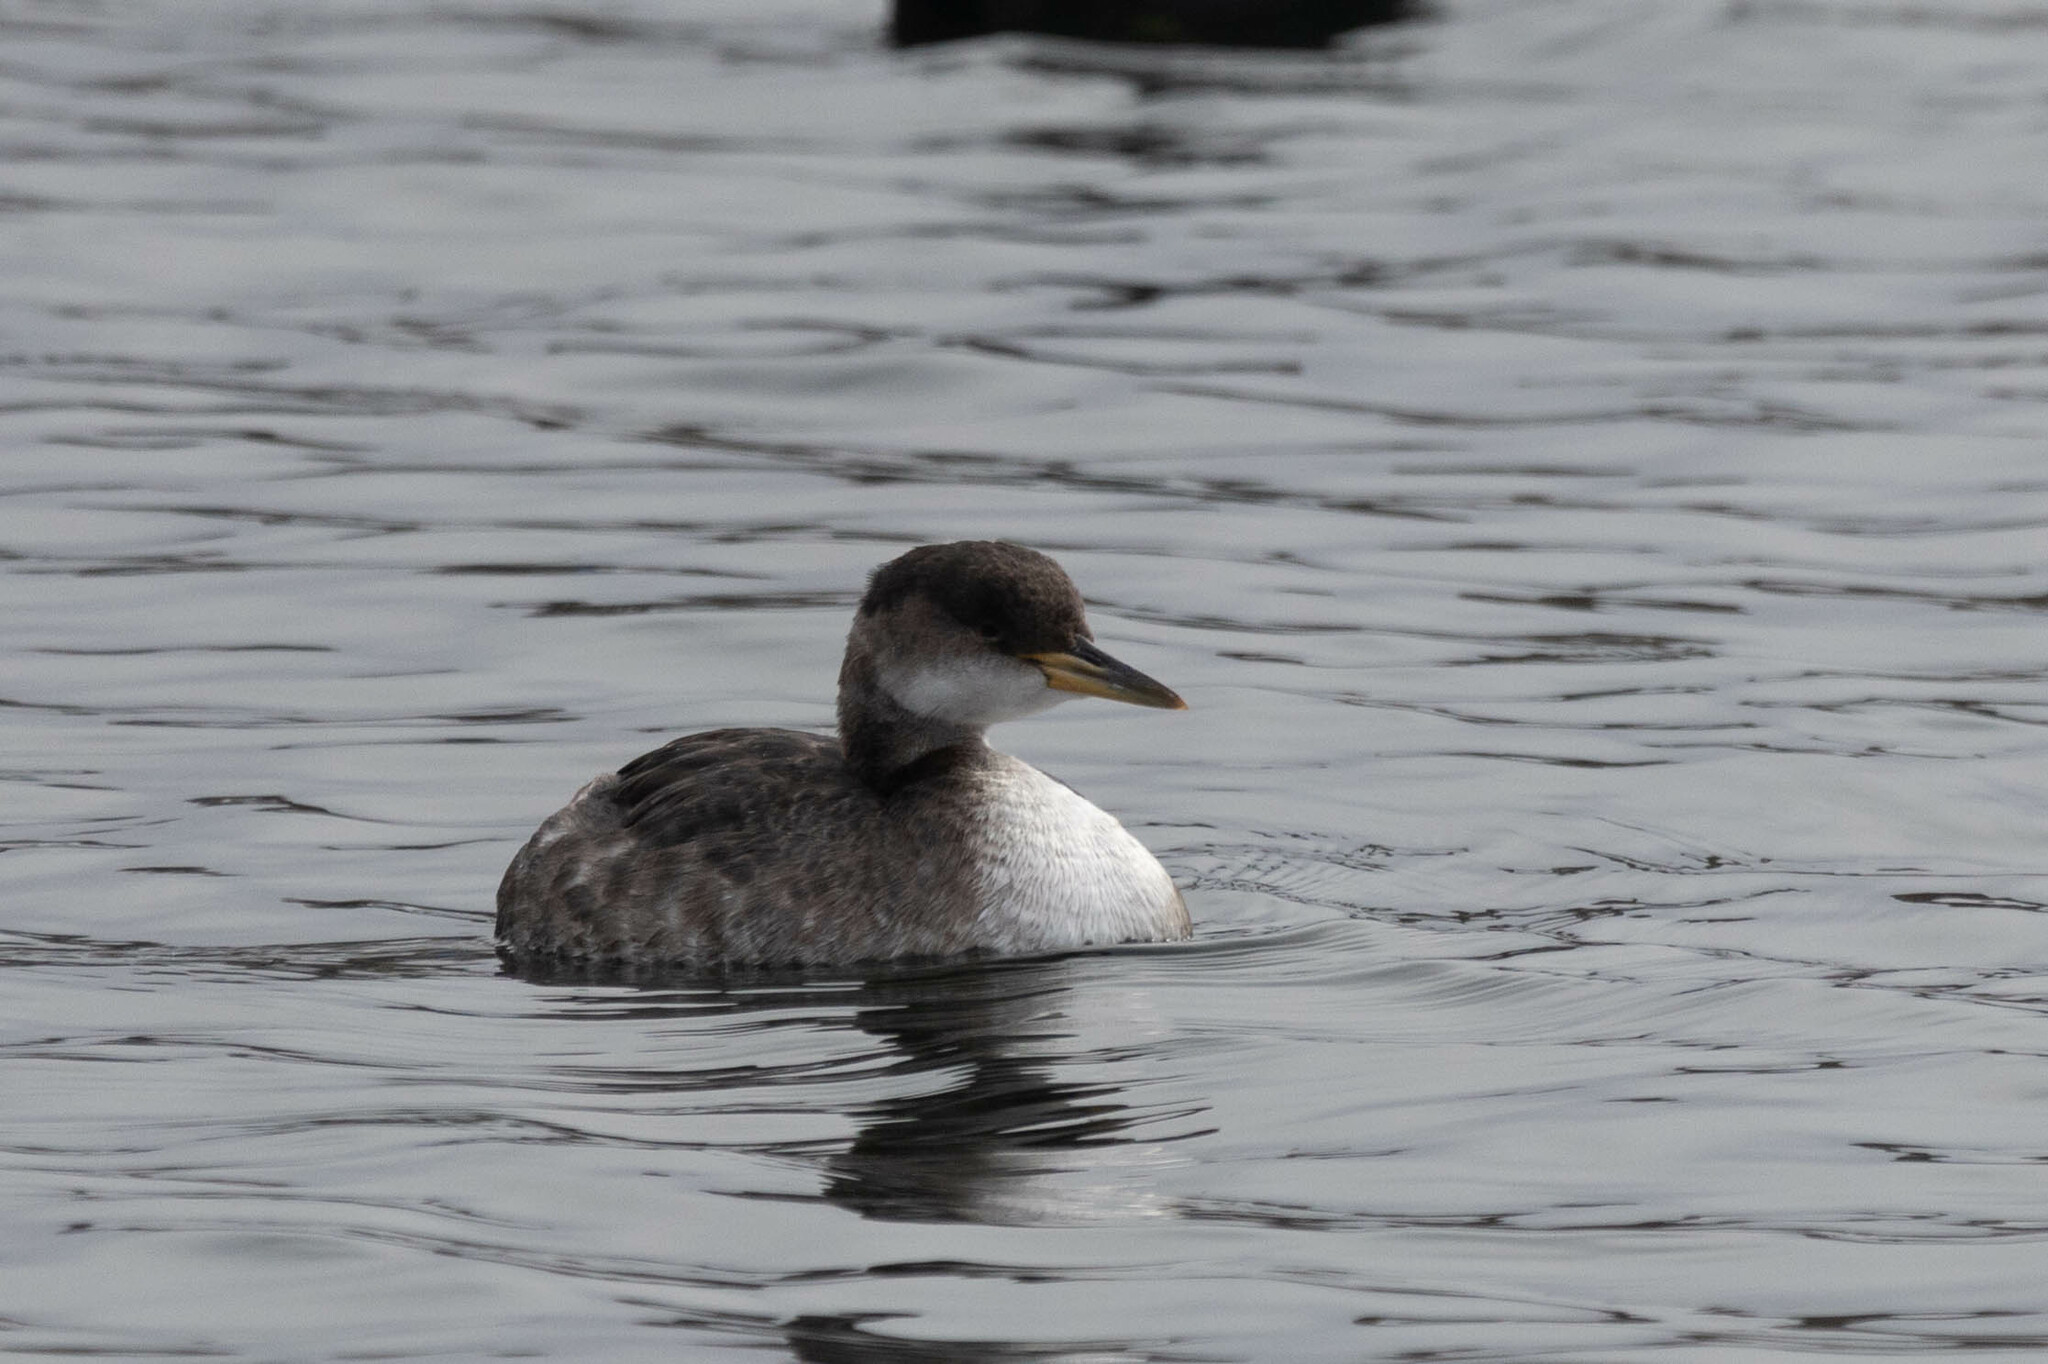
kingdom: Animalia
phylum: Chordata
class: Aves
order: Podicipediformes
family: Podicipedidae
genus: Podiceps
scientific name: Podiceps grisegena
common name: Red-necked grebe
